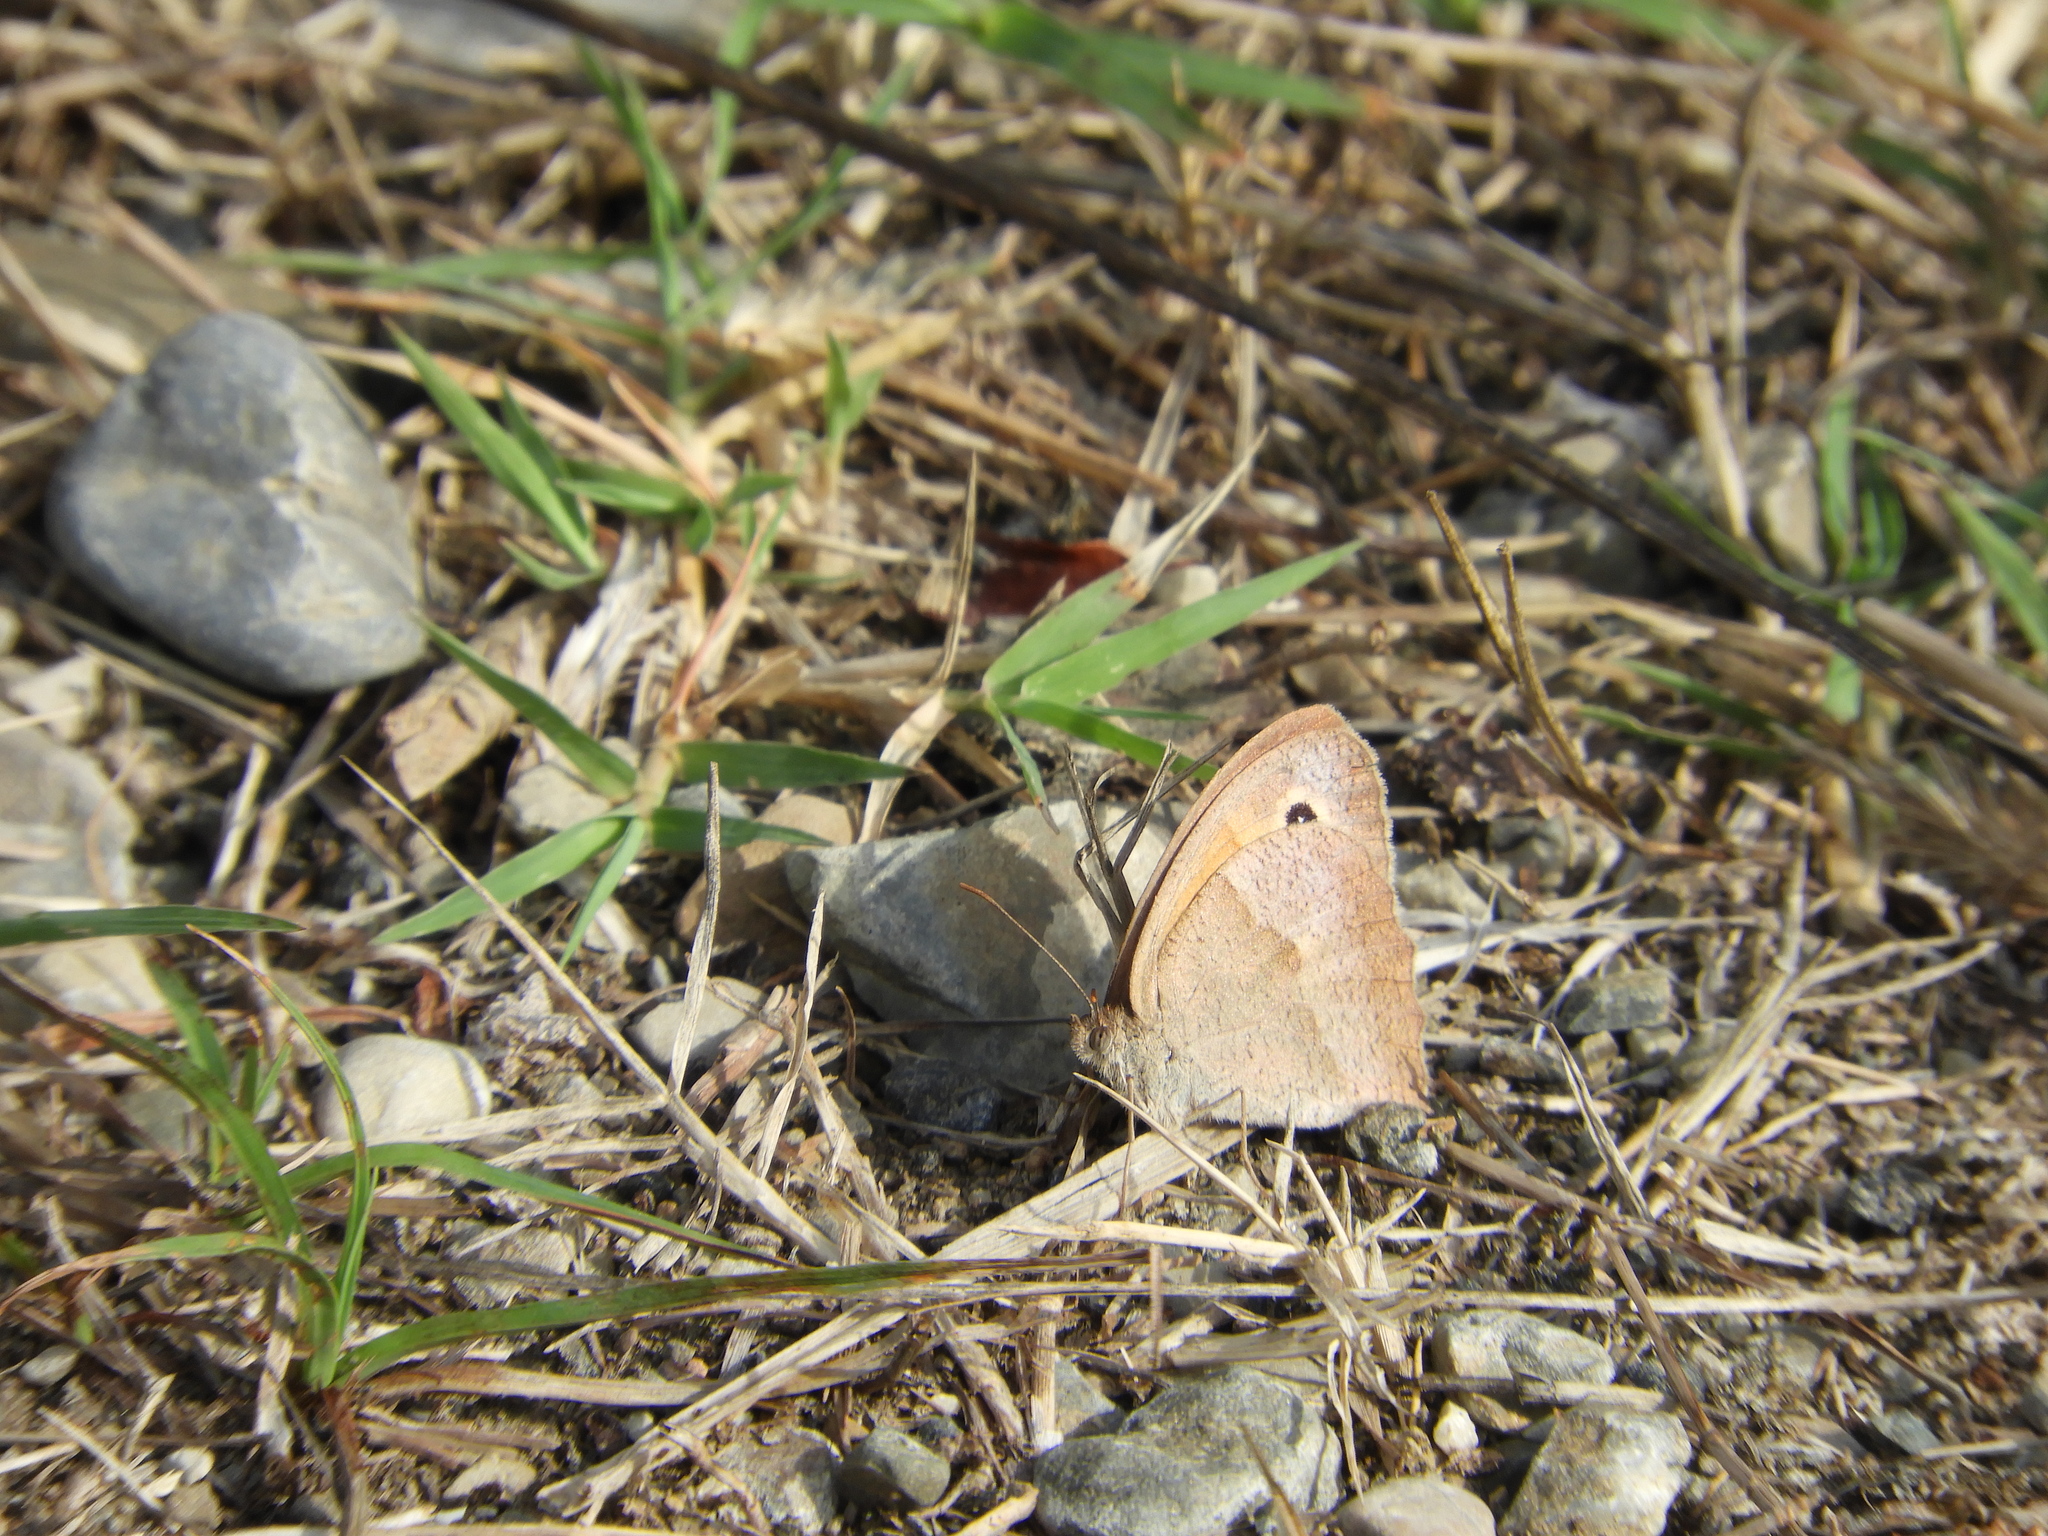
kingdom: Animalia
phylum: Arthropoda
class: Insecta
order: Lepidoptera
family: Nymphalidae
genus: Maniola
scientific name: Maniola jurtina
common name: Meadow brown
